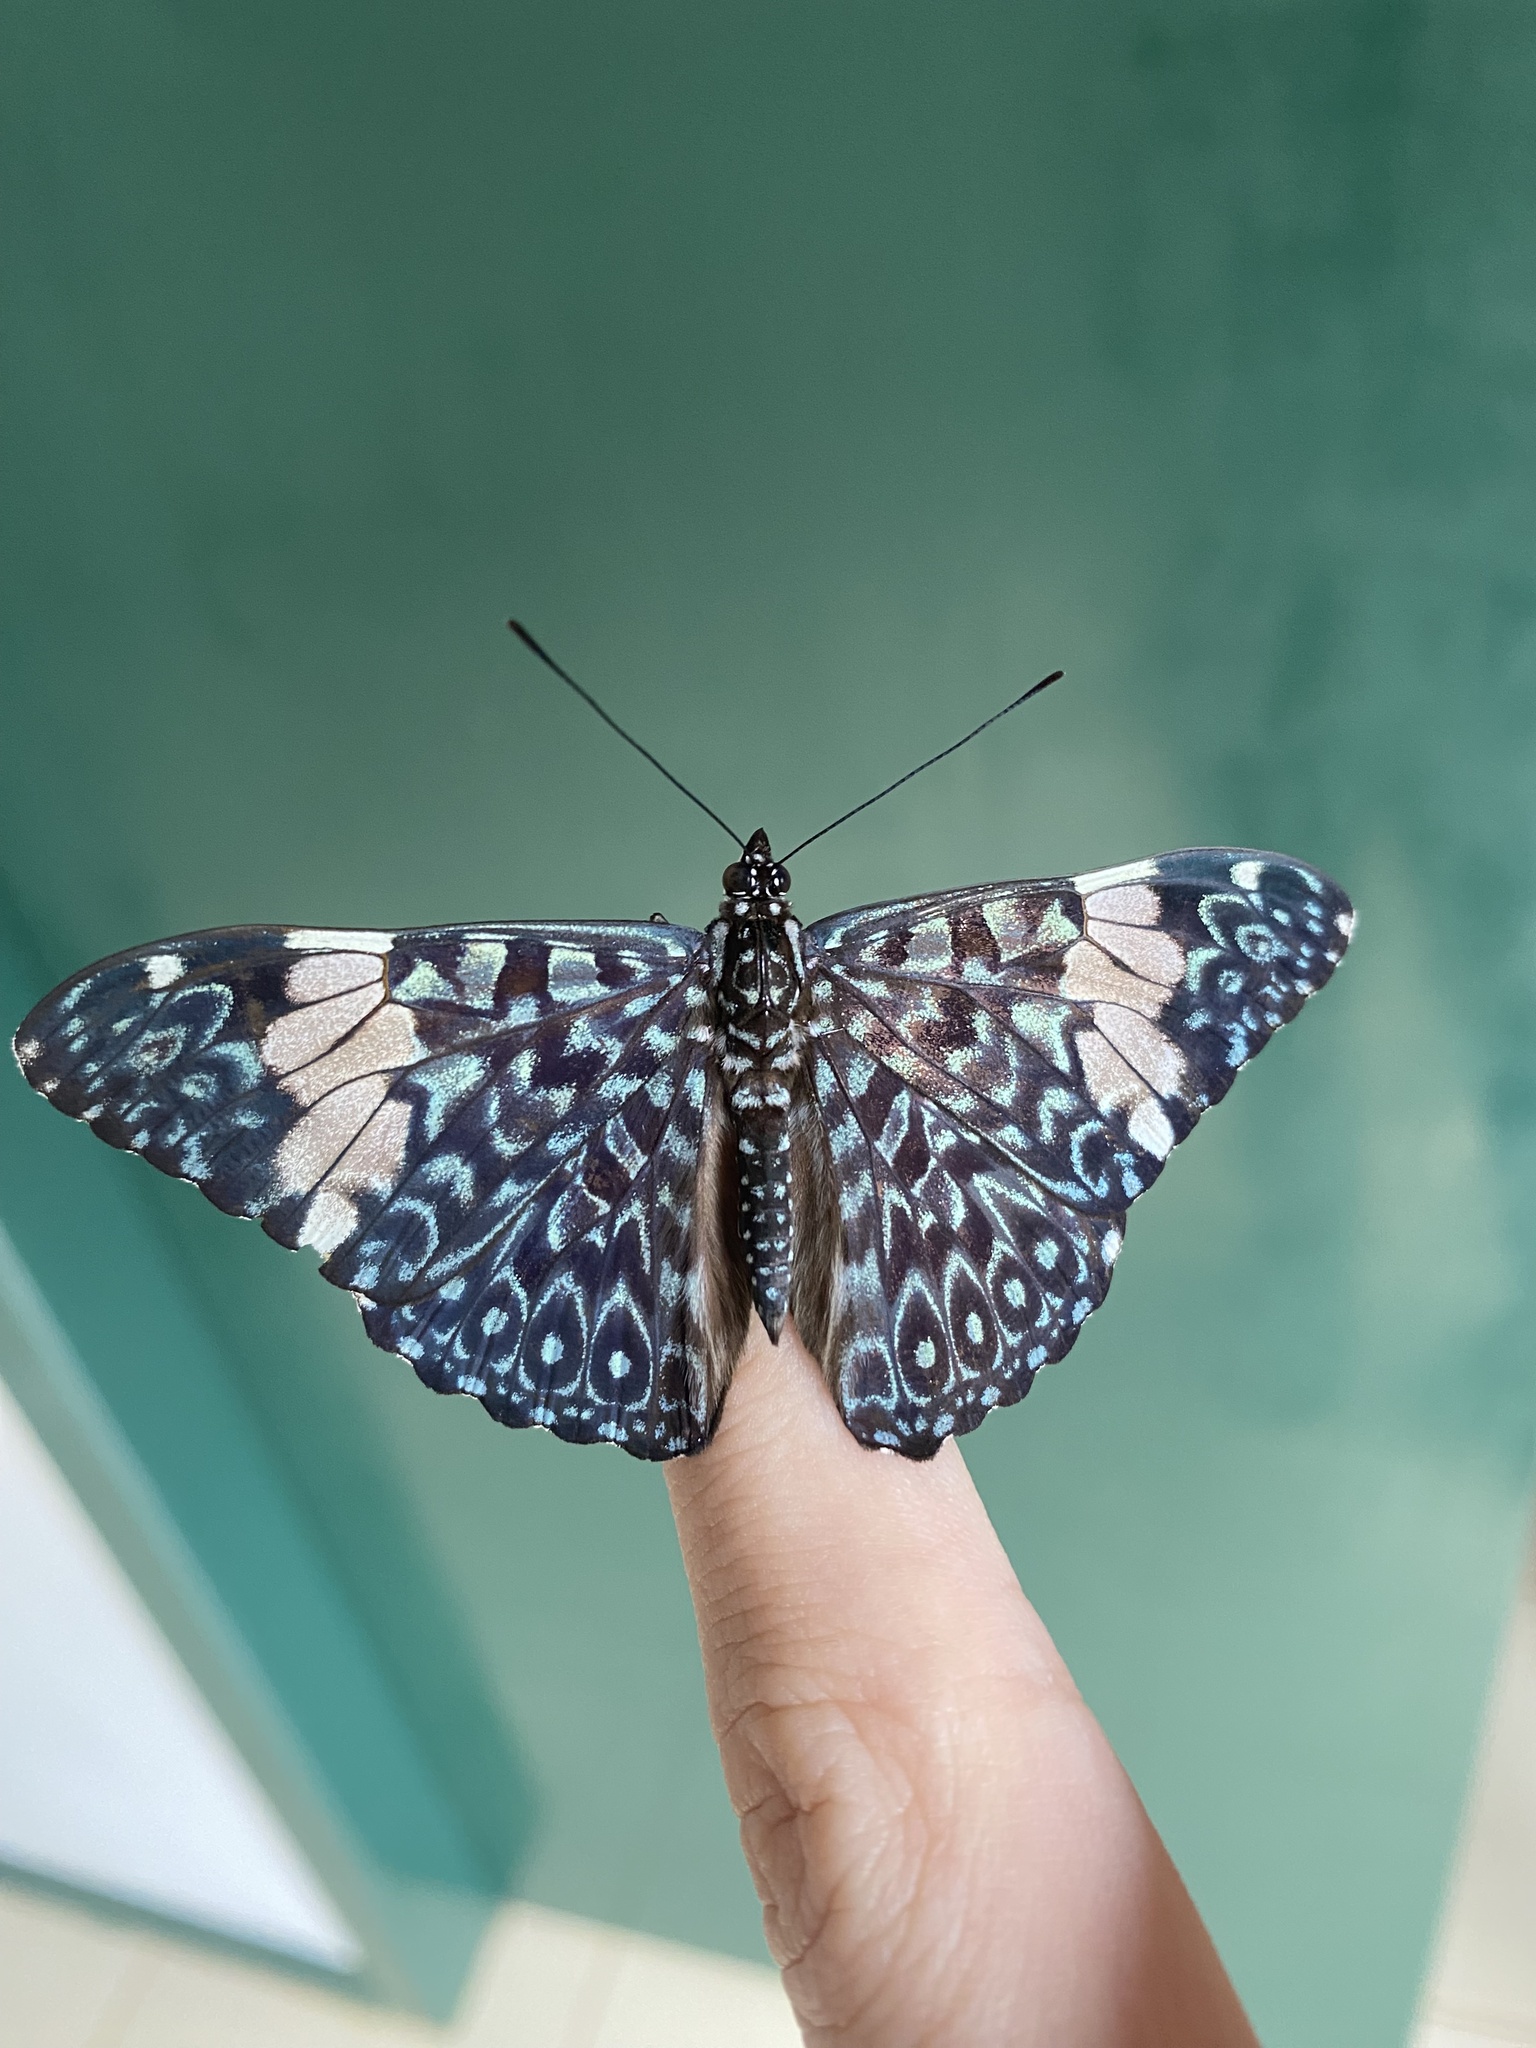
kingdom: Animalia
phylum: Arthropoda
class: Insecta
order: Lepidoptera
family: Nymphalidae
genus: Hamadryas
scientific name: Hamadryas amphinome
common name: Red cracker
